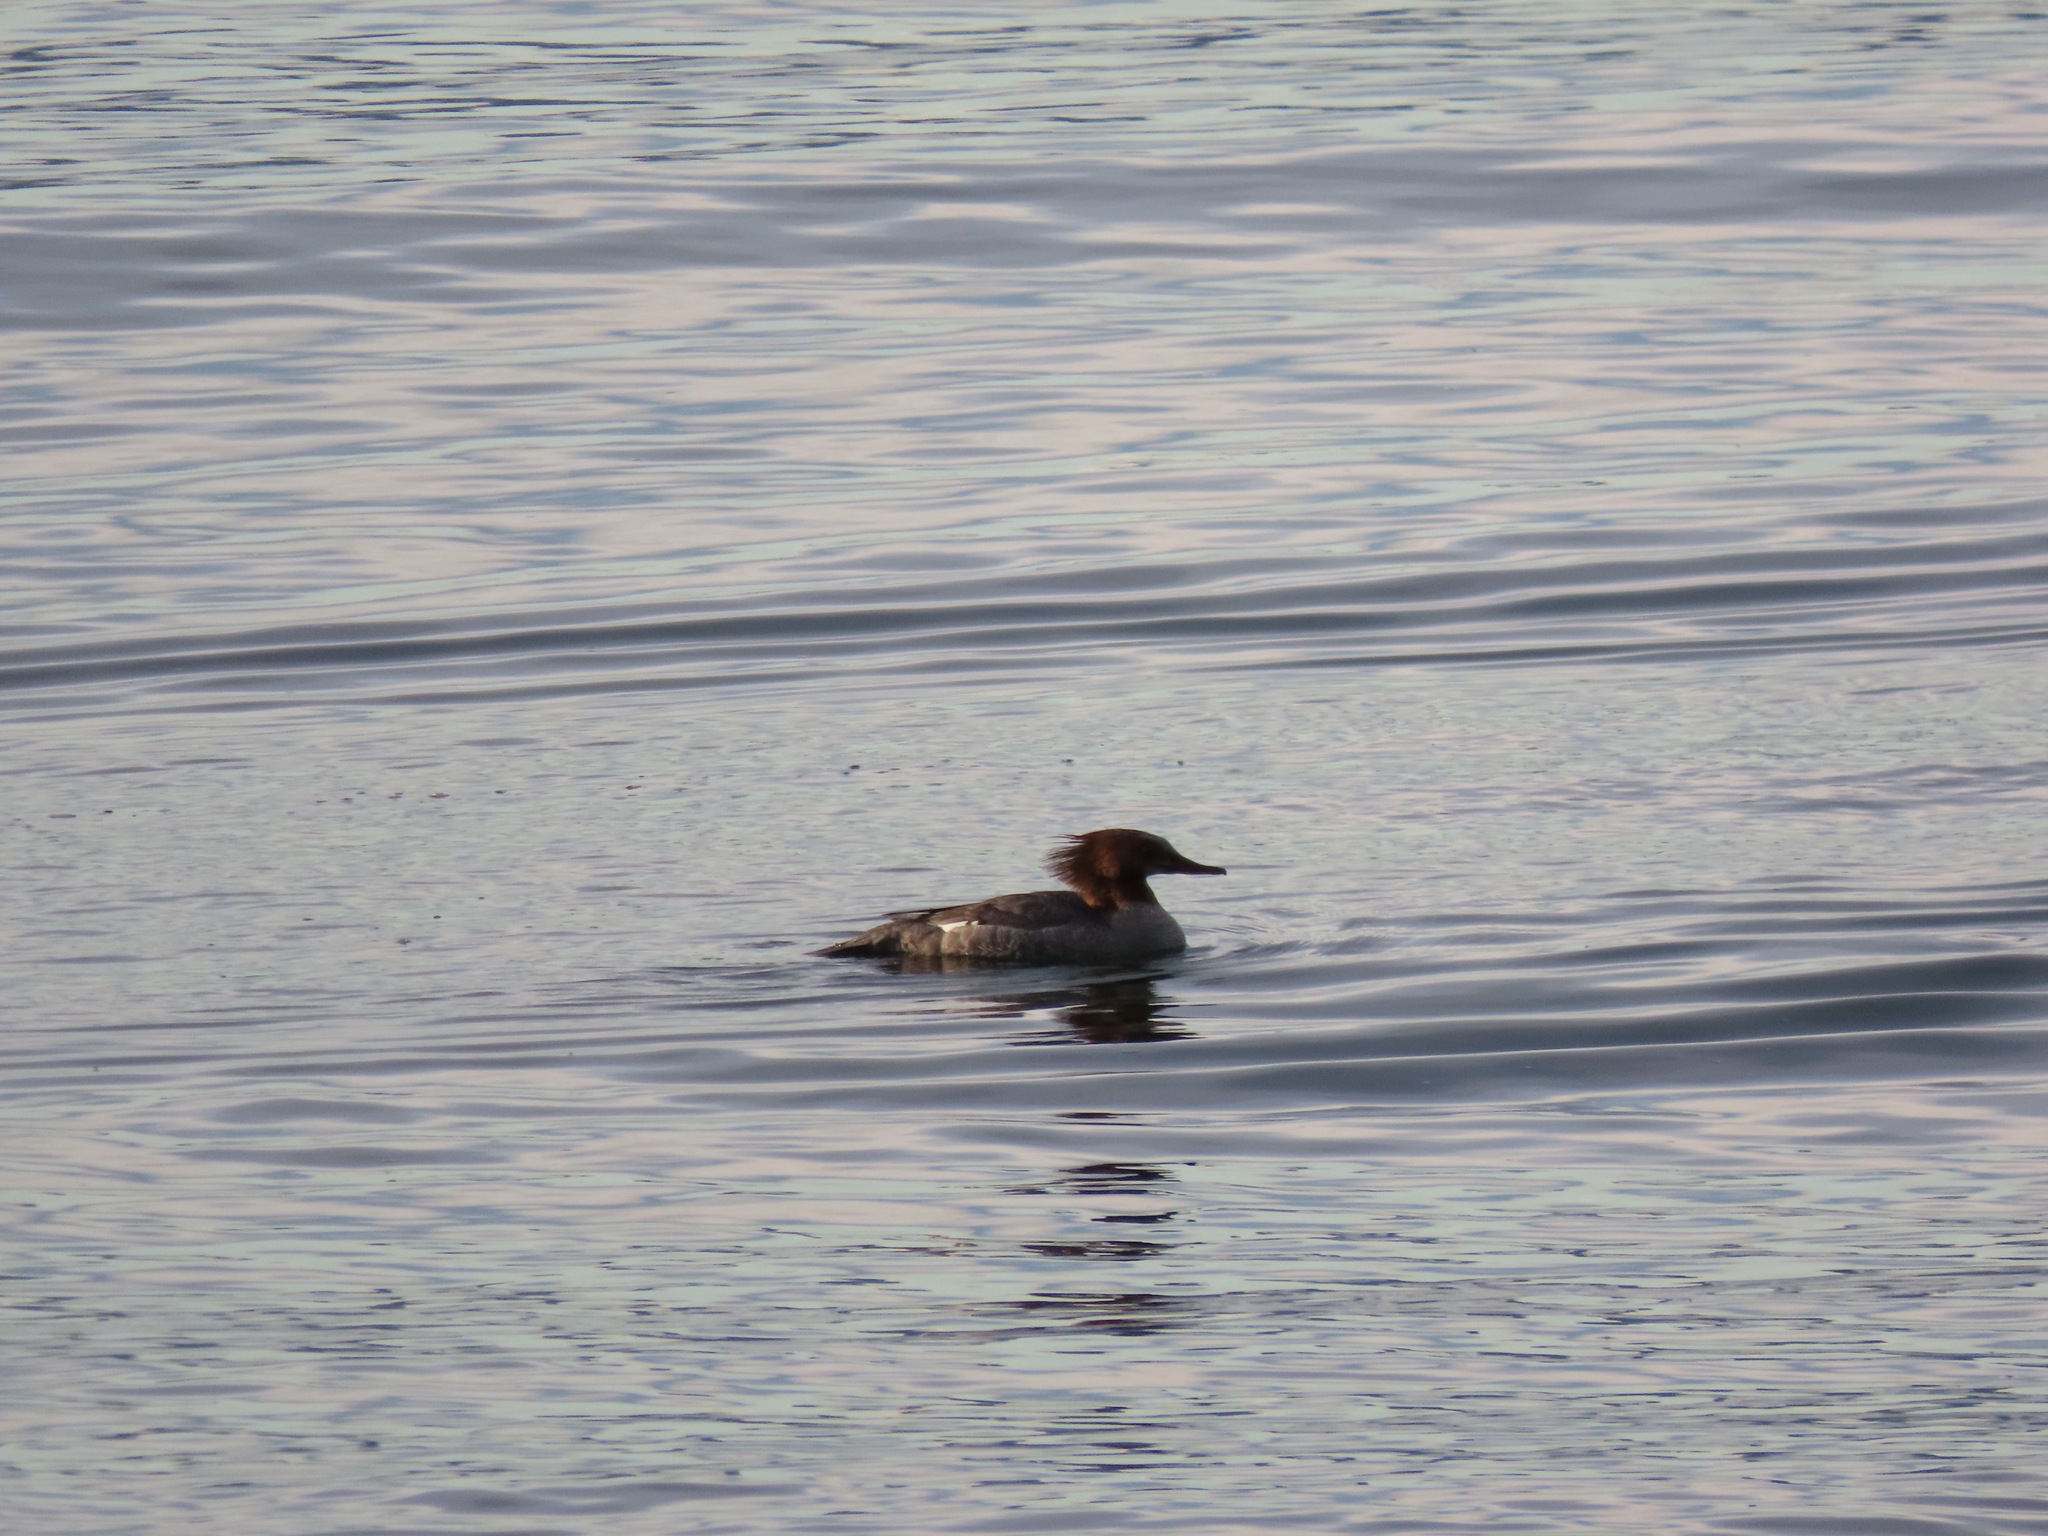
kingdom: Animalia
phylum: Chordata
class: Aves
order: Anseriformes
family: Anatidae
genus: Mergus
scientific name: Mergus merganser
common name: Common merganser
